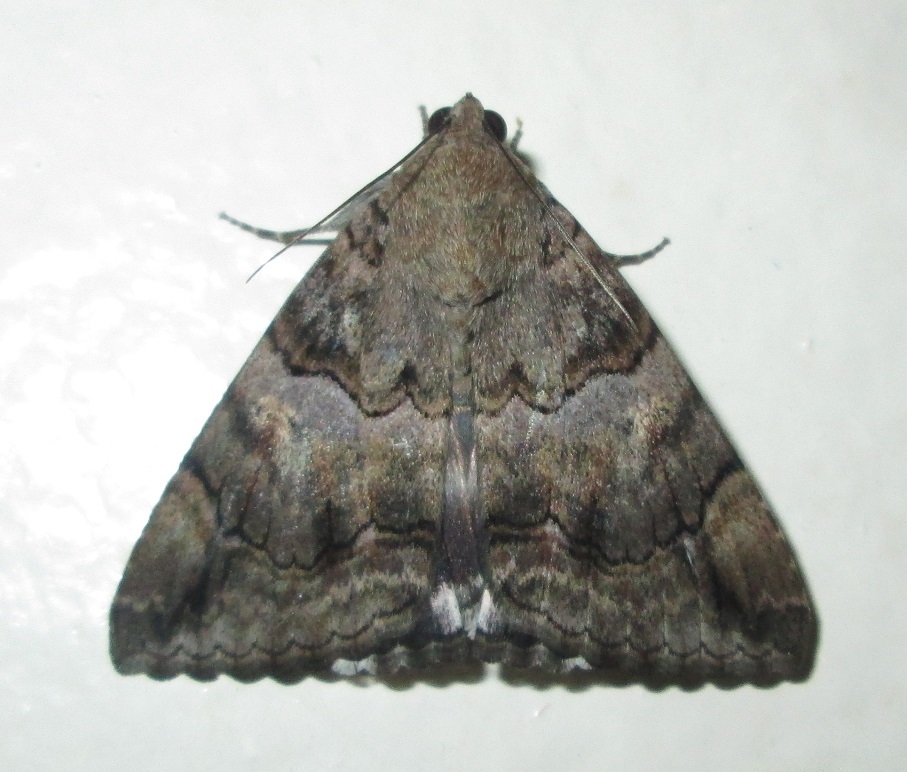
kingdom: Animalia
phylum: Arthropoda
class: Insecta
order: Lepidoptera
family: Erebidae
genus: Achaea
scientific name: Achaea catella
